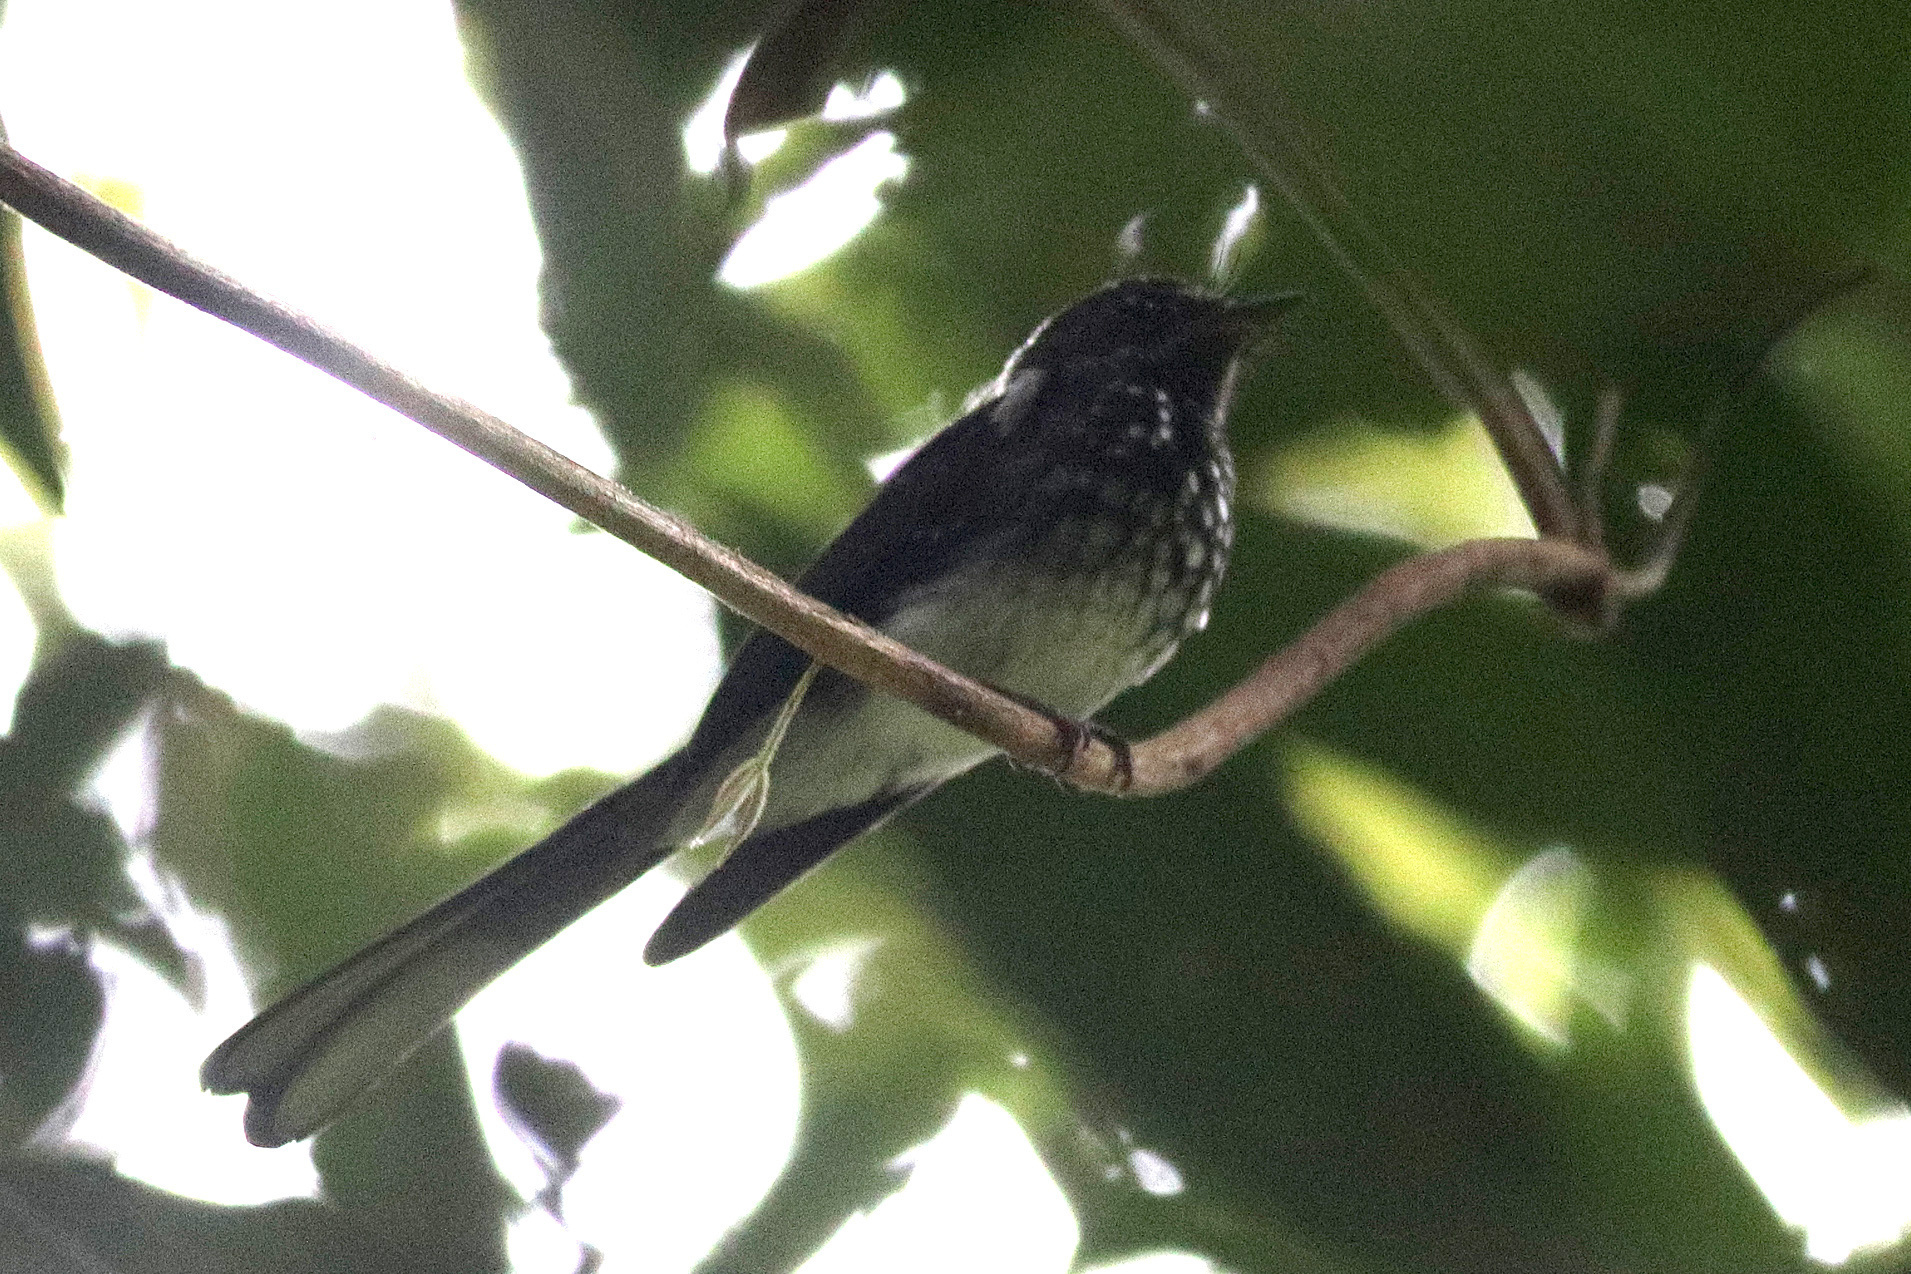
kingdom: Animalia
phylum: Chordata
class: Aves
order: Passeriformes
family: Rhipiduridae
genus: Rhipidura
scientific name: Rhipidura perlata
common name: Spotted fantail
